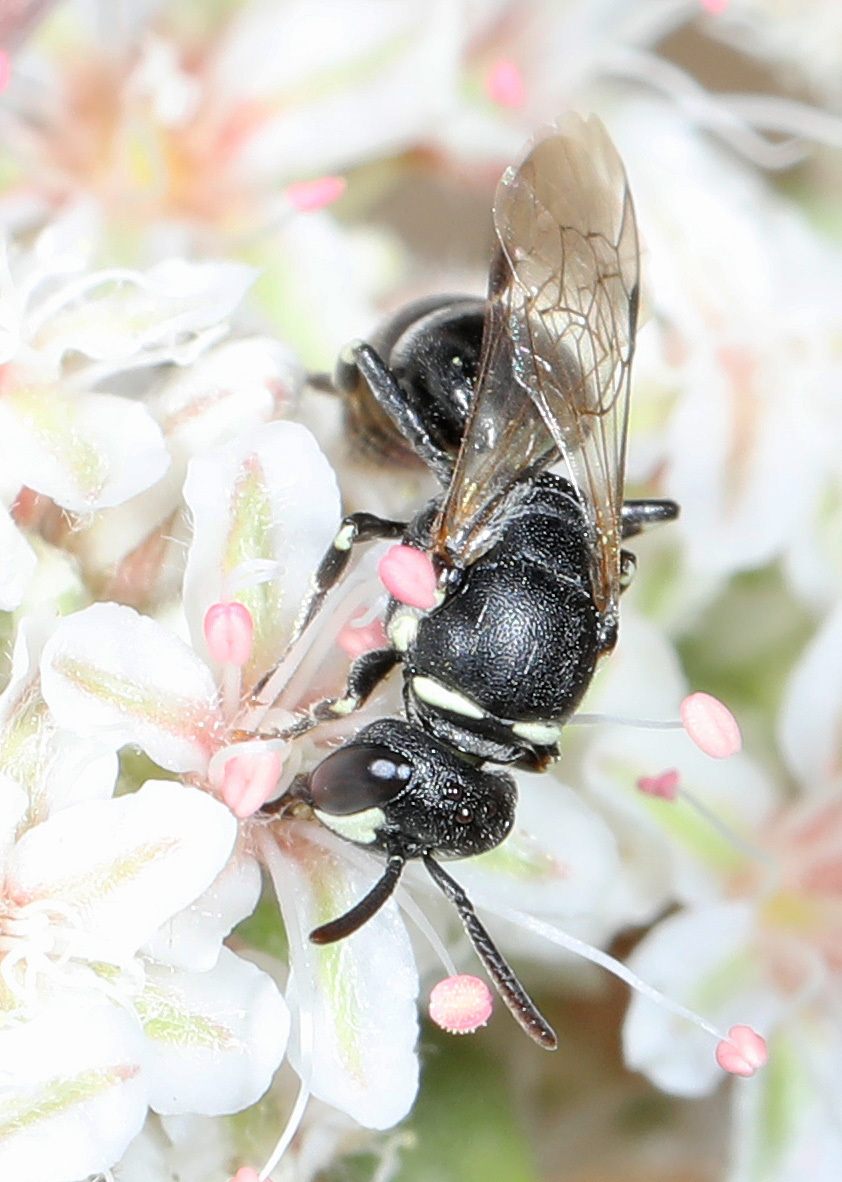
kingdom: Animalia
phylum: Arthropoda
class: Insecta
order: Hymenoptera
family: Colletidae
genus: Hylaeus
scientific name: Hylaeus
